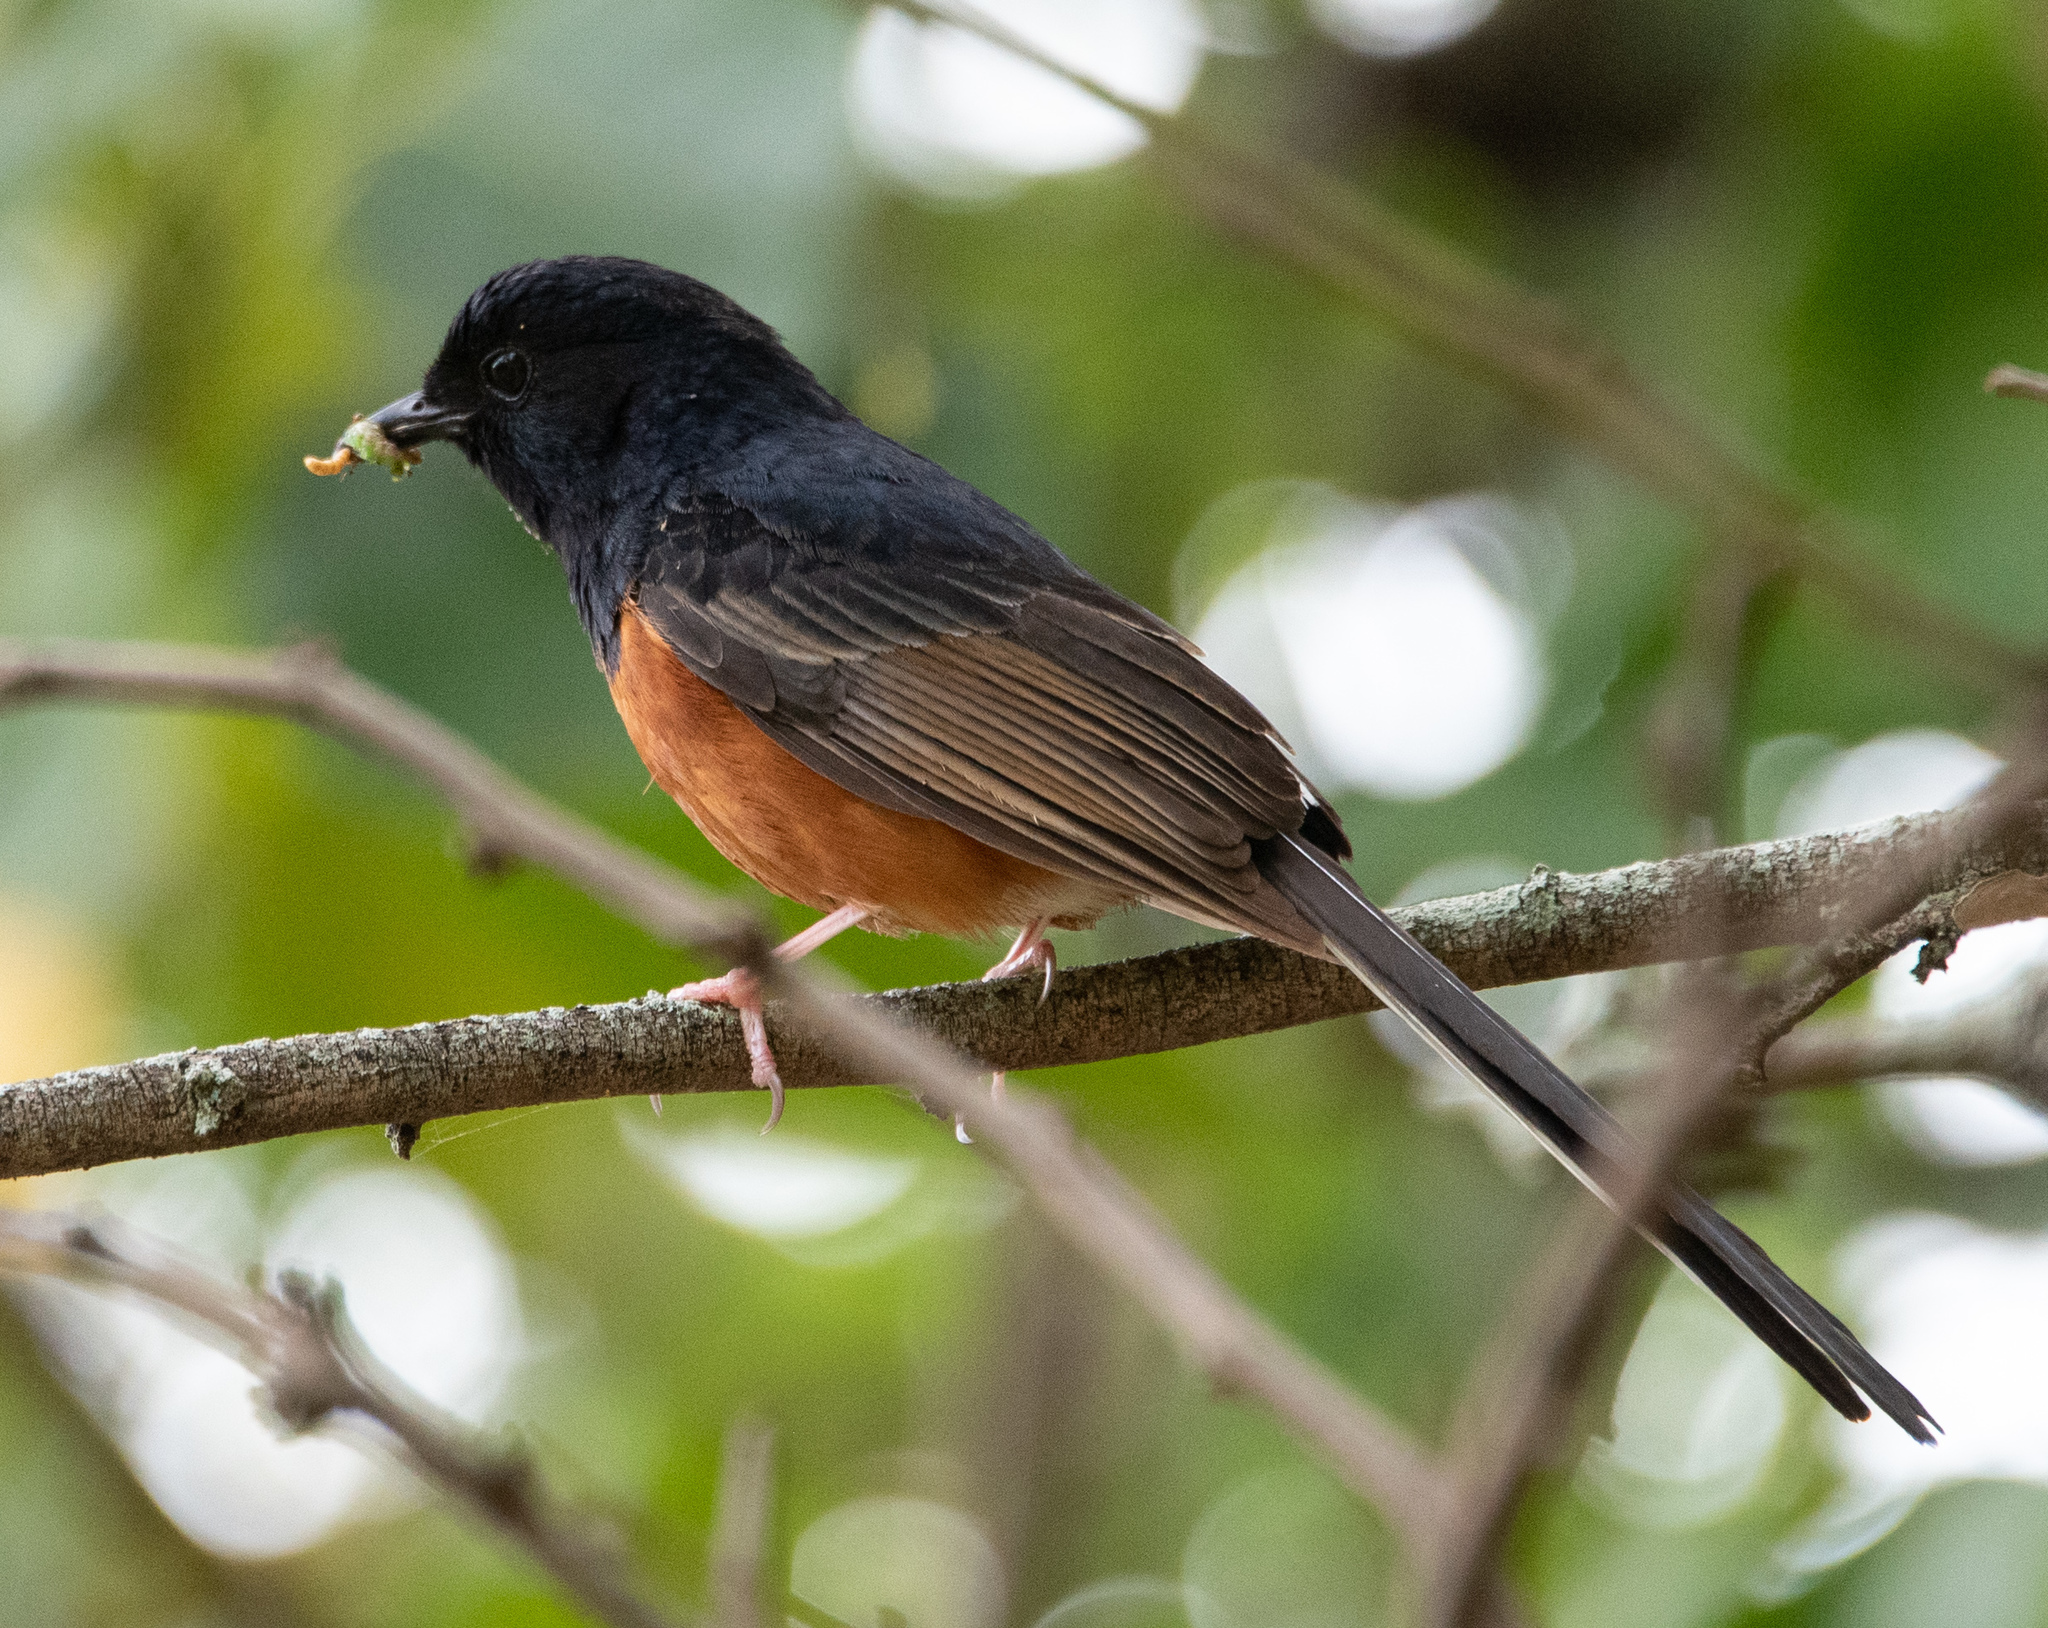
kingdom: Animalia
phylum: Chordata
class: Aves
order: Passeriformes
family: Muscicapidae
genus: Copsychus
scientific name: Copsychus malabaricus
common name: White-rumped shama
